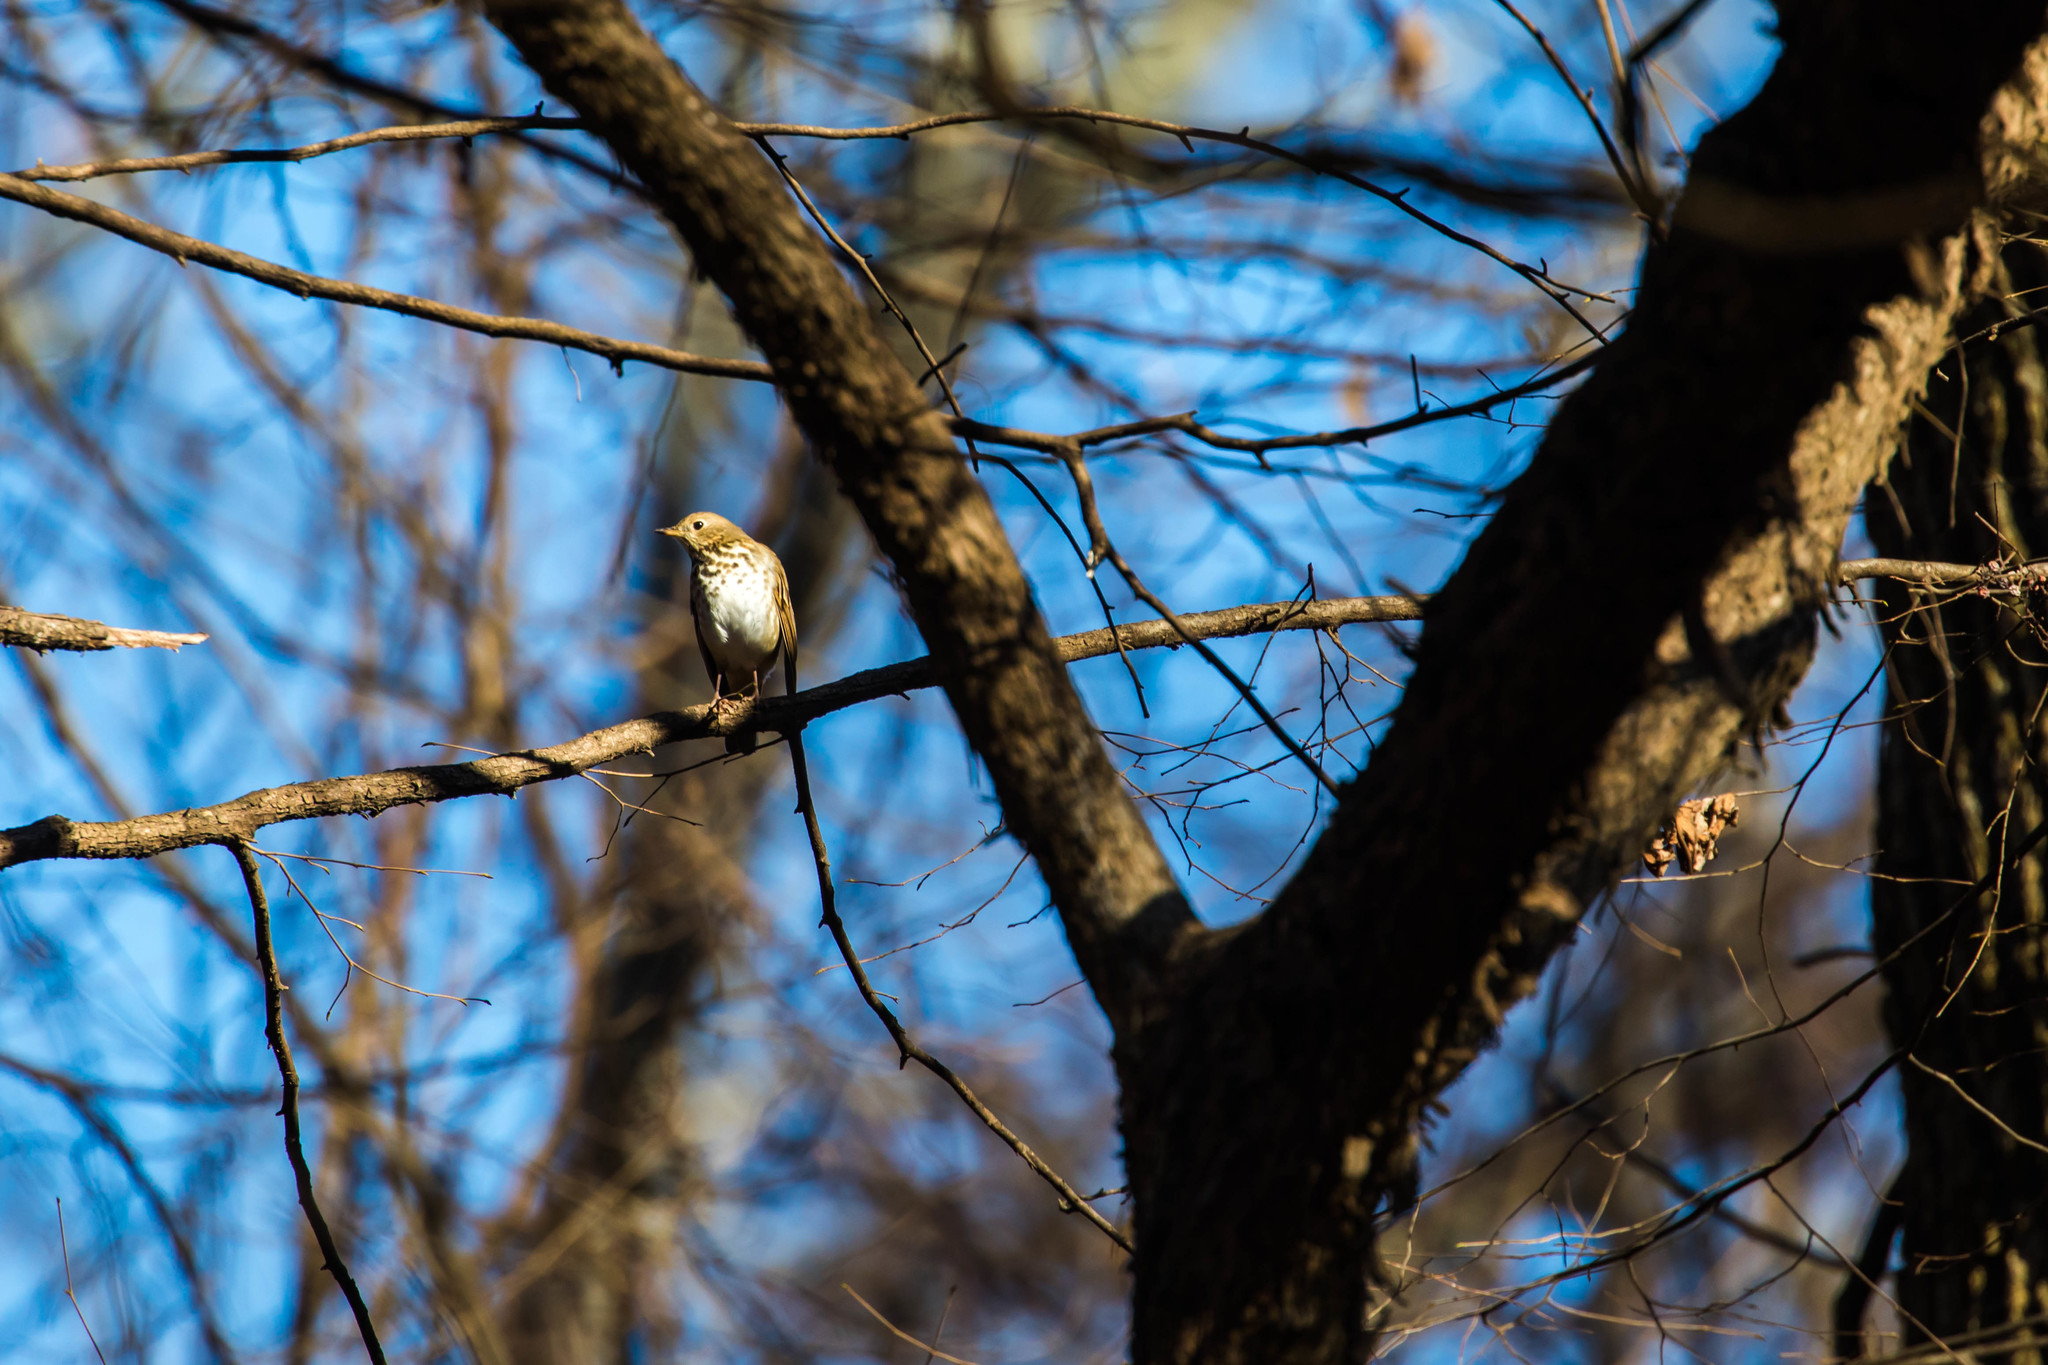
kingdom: Animalia
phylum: Chordata
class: Aves
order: Passeriformes
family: Turdidae
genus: Catharus
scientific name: Catharus guttatus
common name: Hermit thrush
